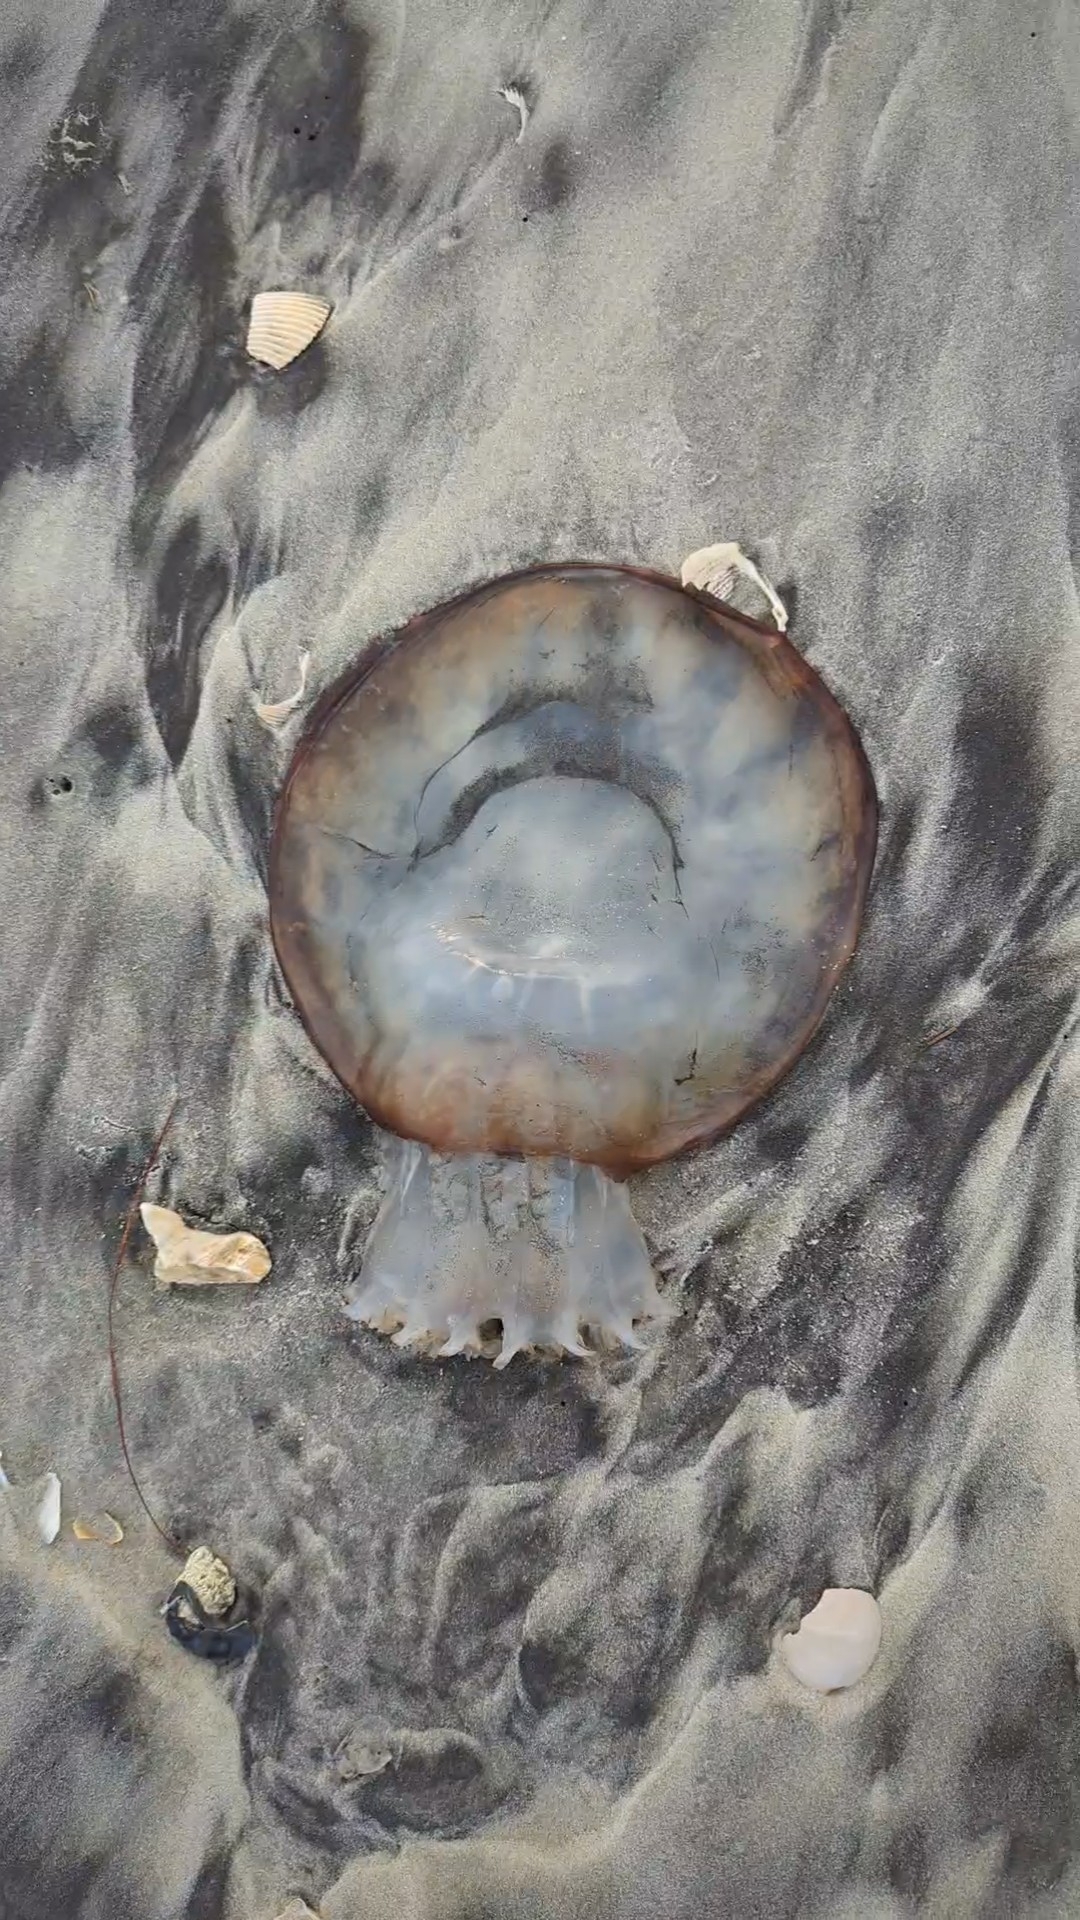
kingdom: Animalia
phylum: Cnidaria
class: Scyphozoa
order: Rhizostomeae
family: Stomolophidae
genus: Stomolophus
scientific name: Stomolophus meleagris
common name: Cabbagehead
